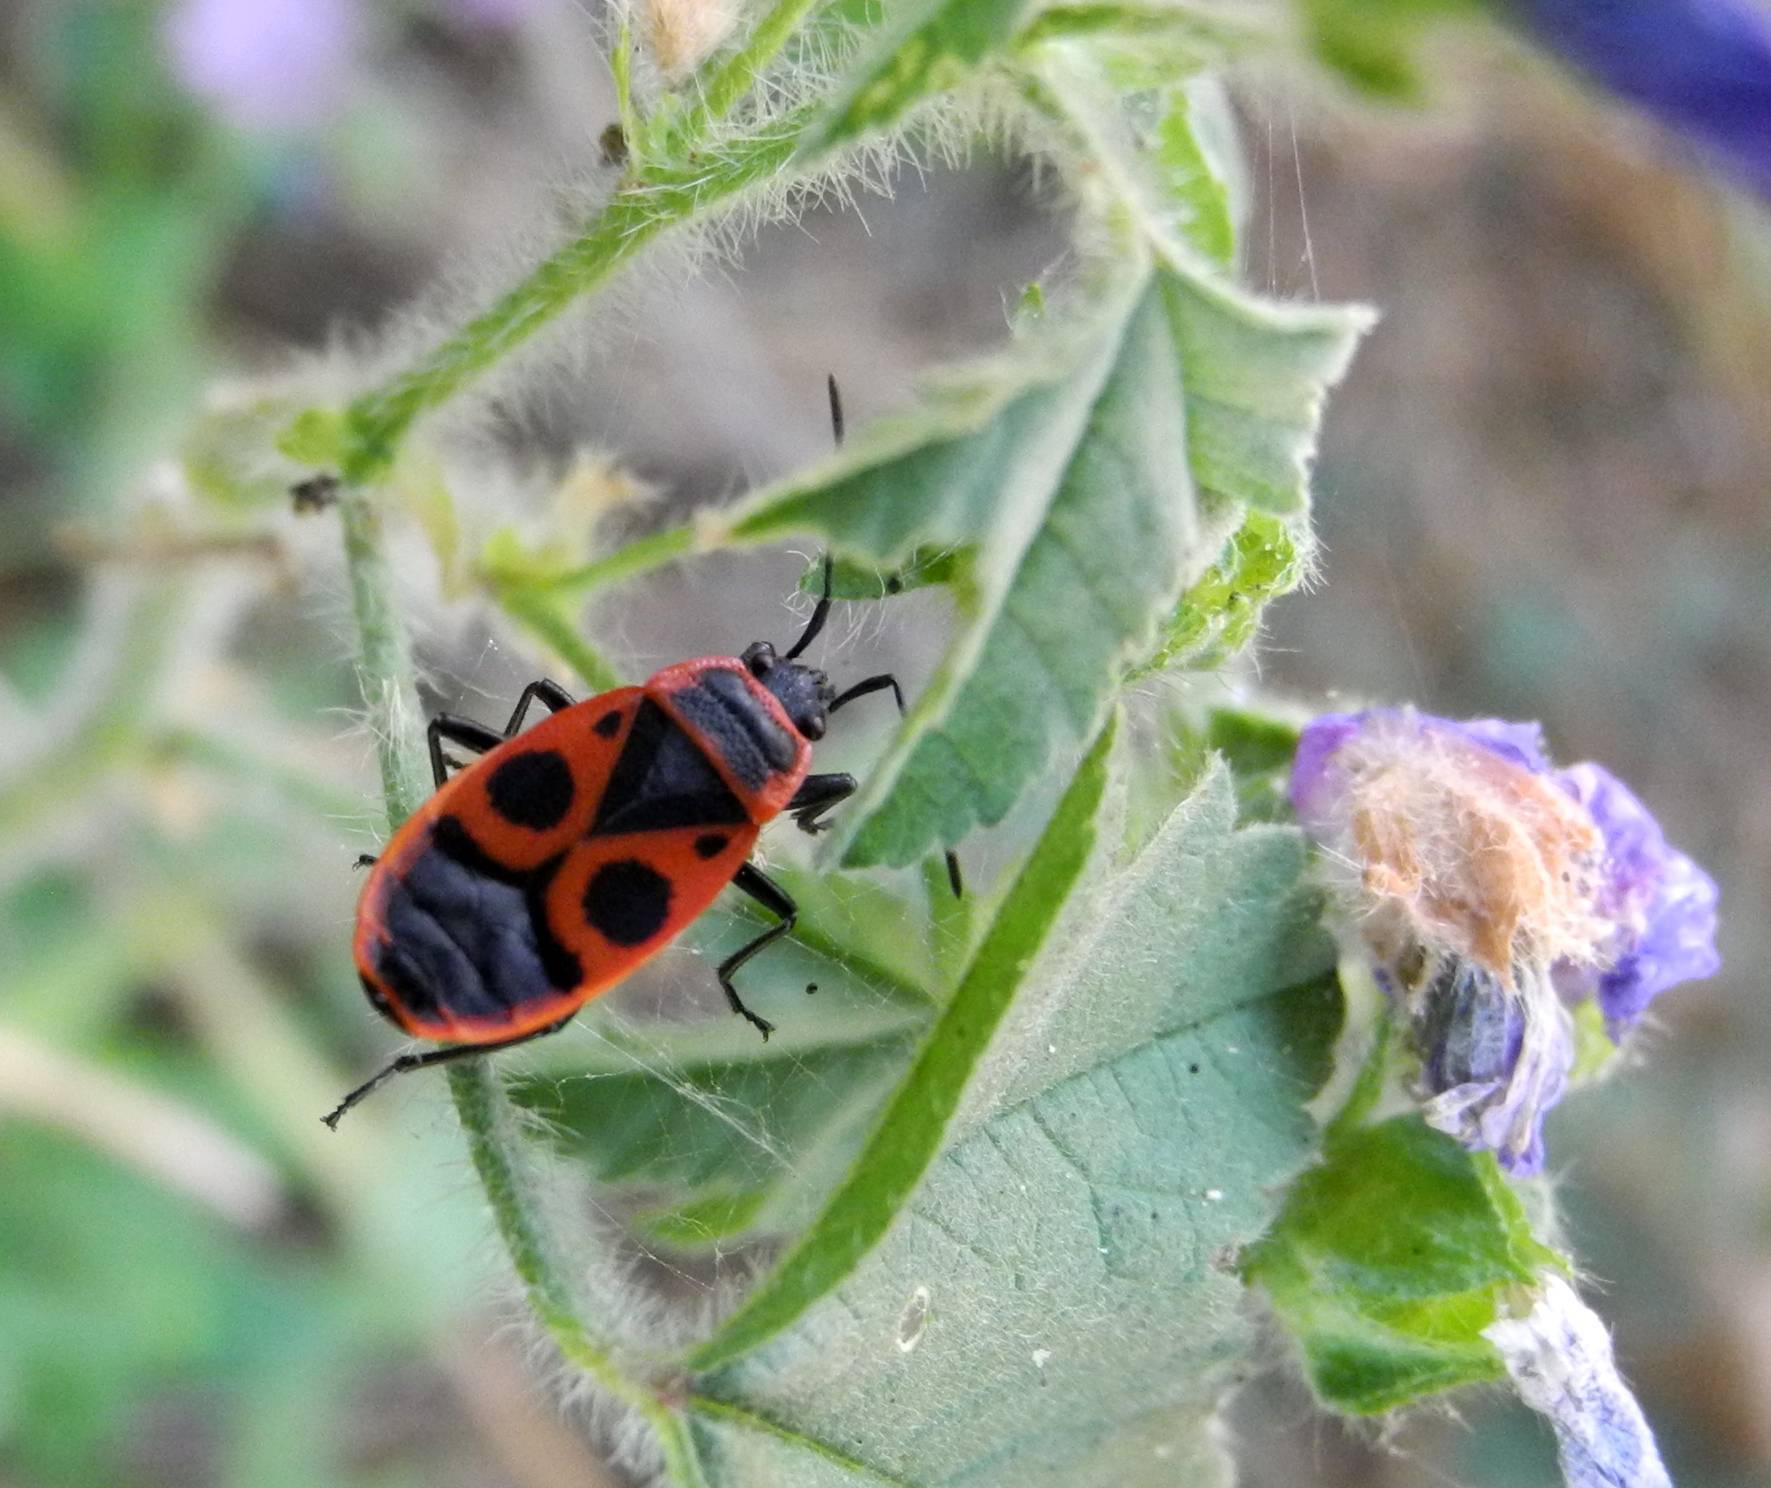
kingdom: Animalia
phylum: Arthropoda
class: Insecta
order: Hemiptera
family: Pyrrhocoridae
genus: Pyrrhocoris
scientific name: Pyrrhocoris apterus
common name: Firebug
